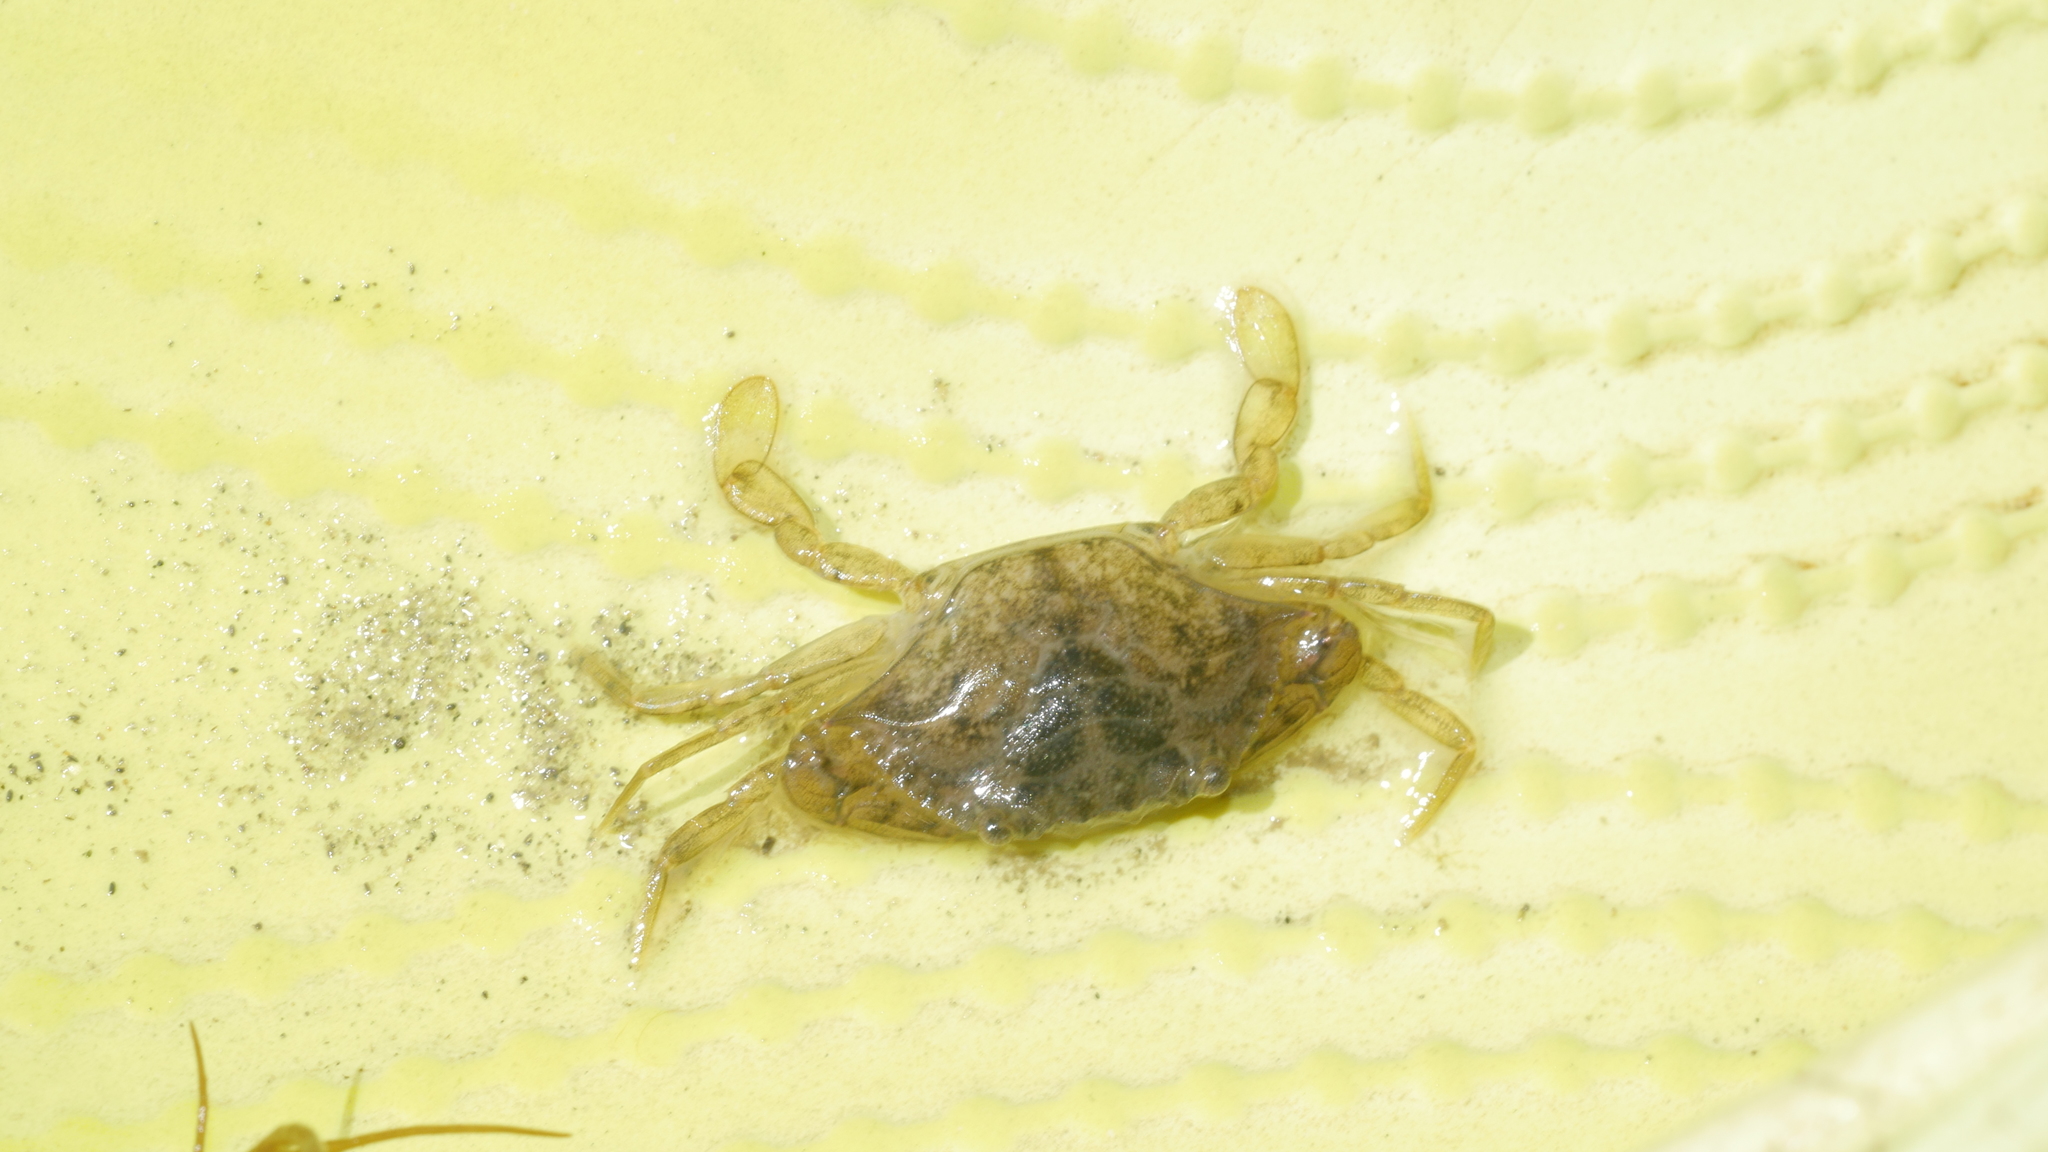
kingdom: Animalia
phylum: Arthropoda
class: Malacostraca
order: Decapoda
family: Portunidae
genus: Callinectes
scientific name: Callinectes sapidus
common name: Blue crab
